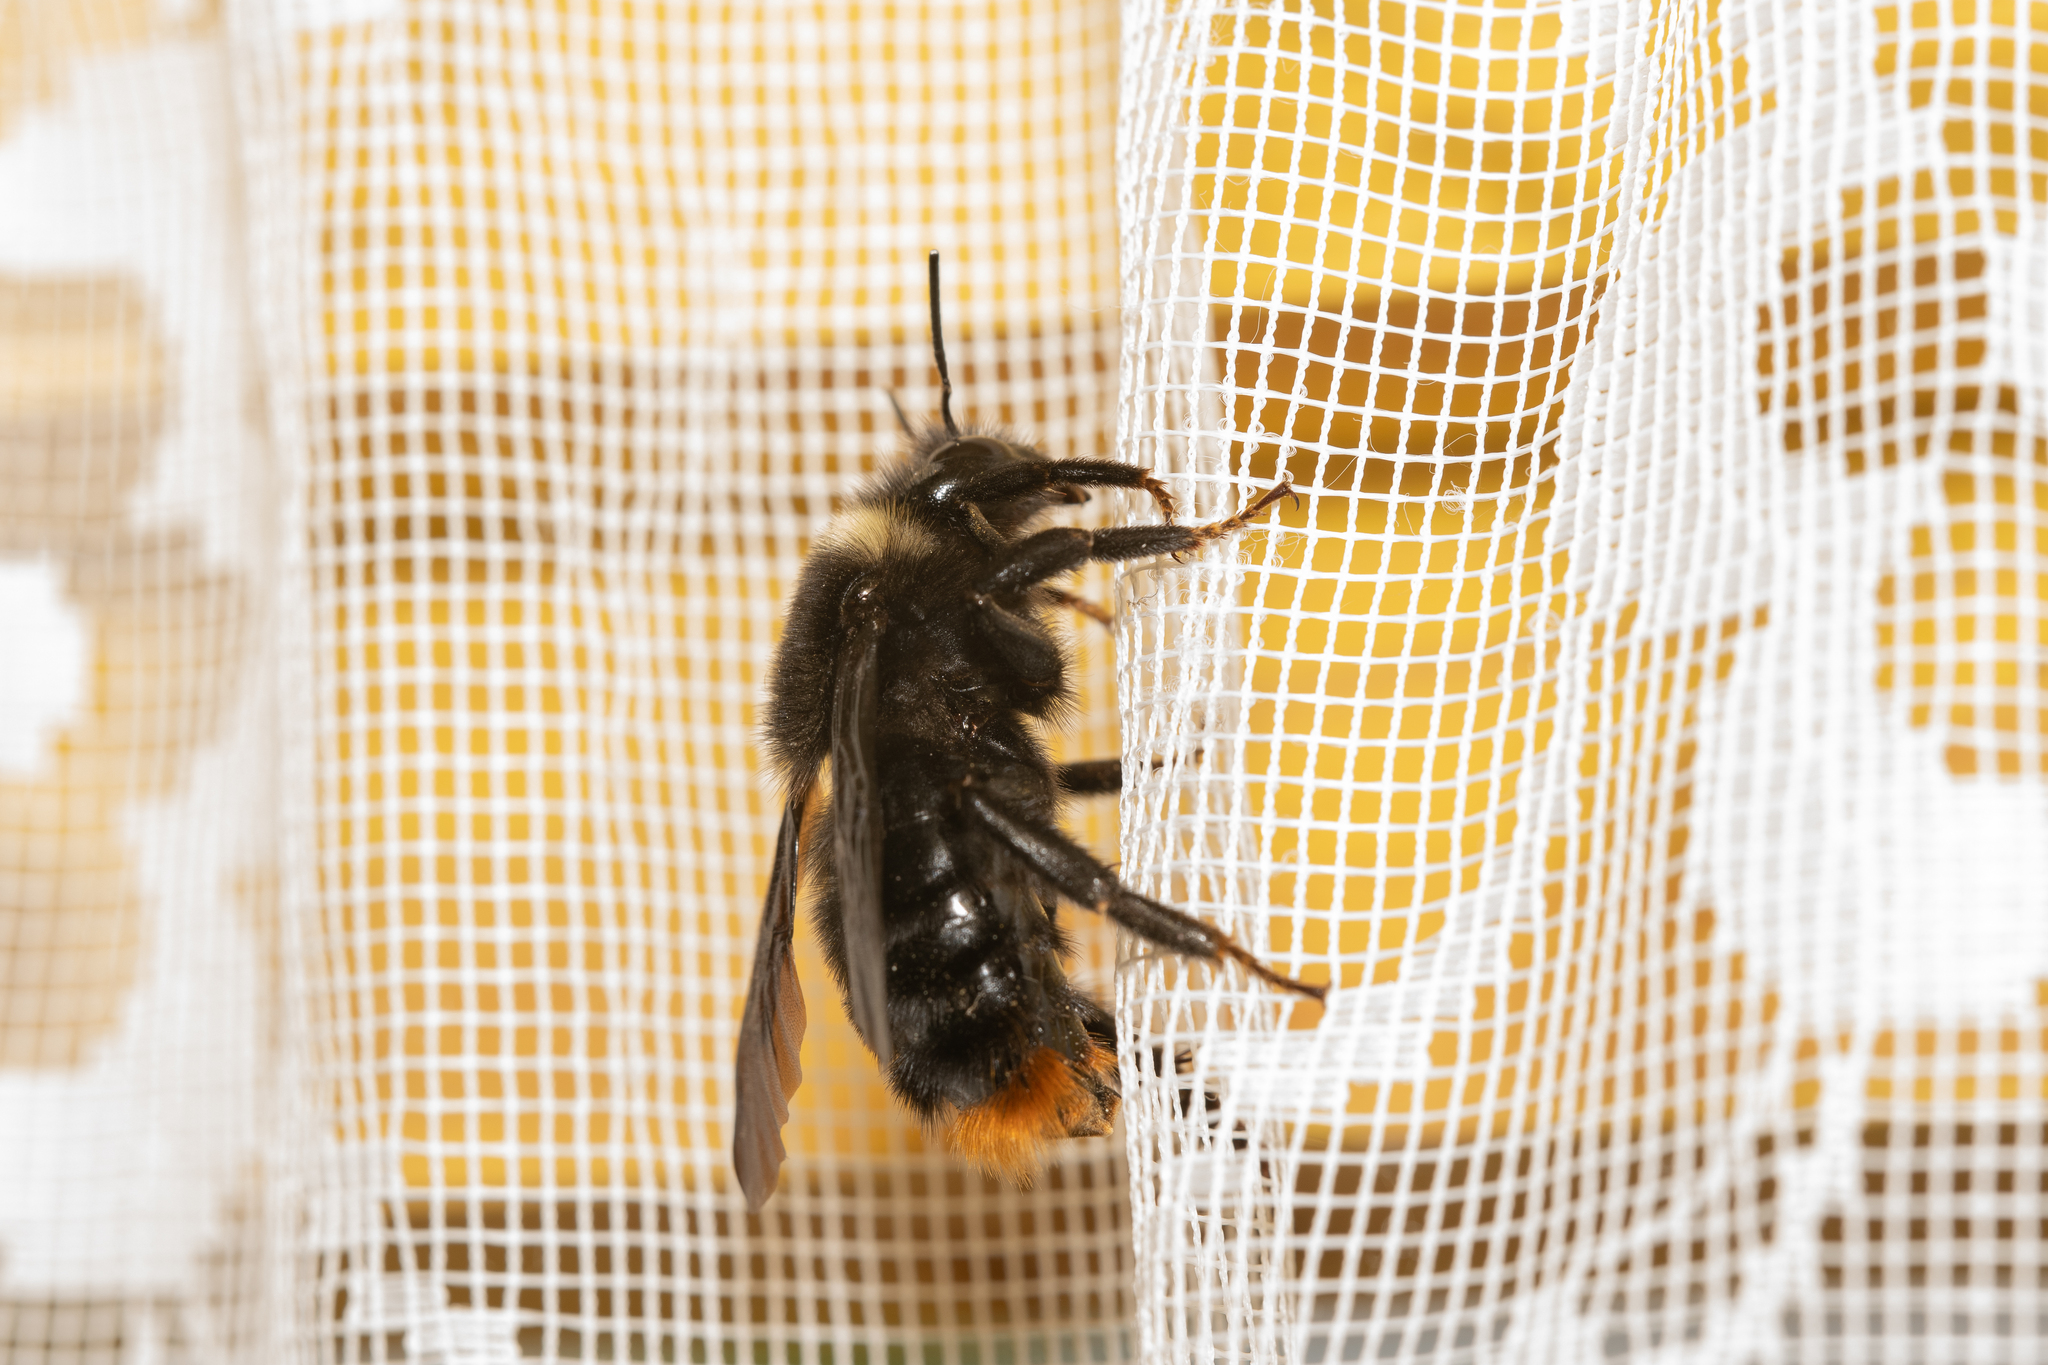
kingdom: Animalia
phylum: Arthropoda
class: Insecta
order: Hymenoptera
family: Apidae
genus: Bombus
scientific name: Bombus rupestris
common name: Hill cuckoo-bee
